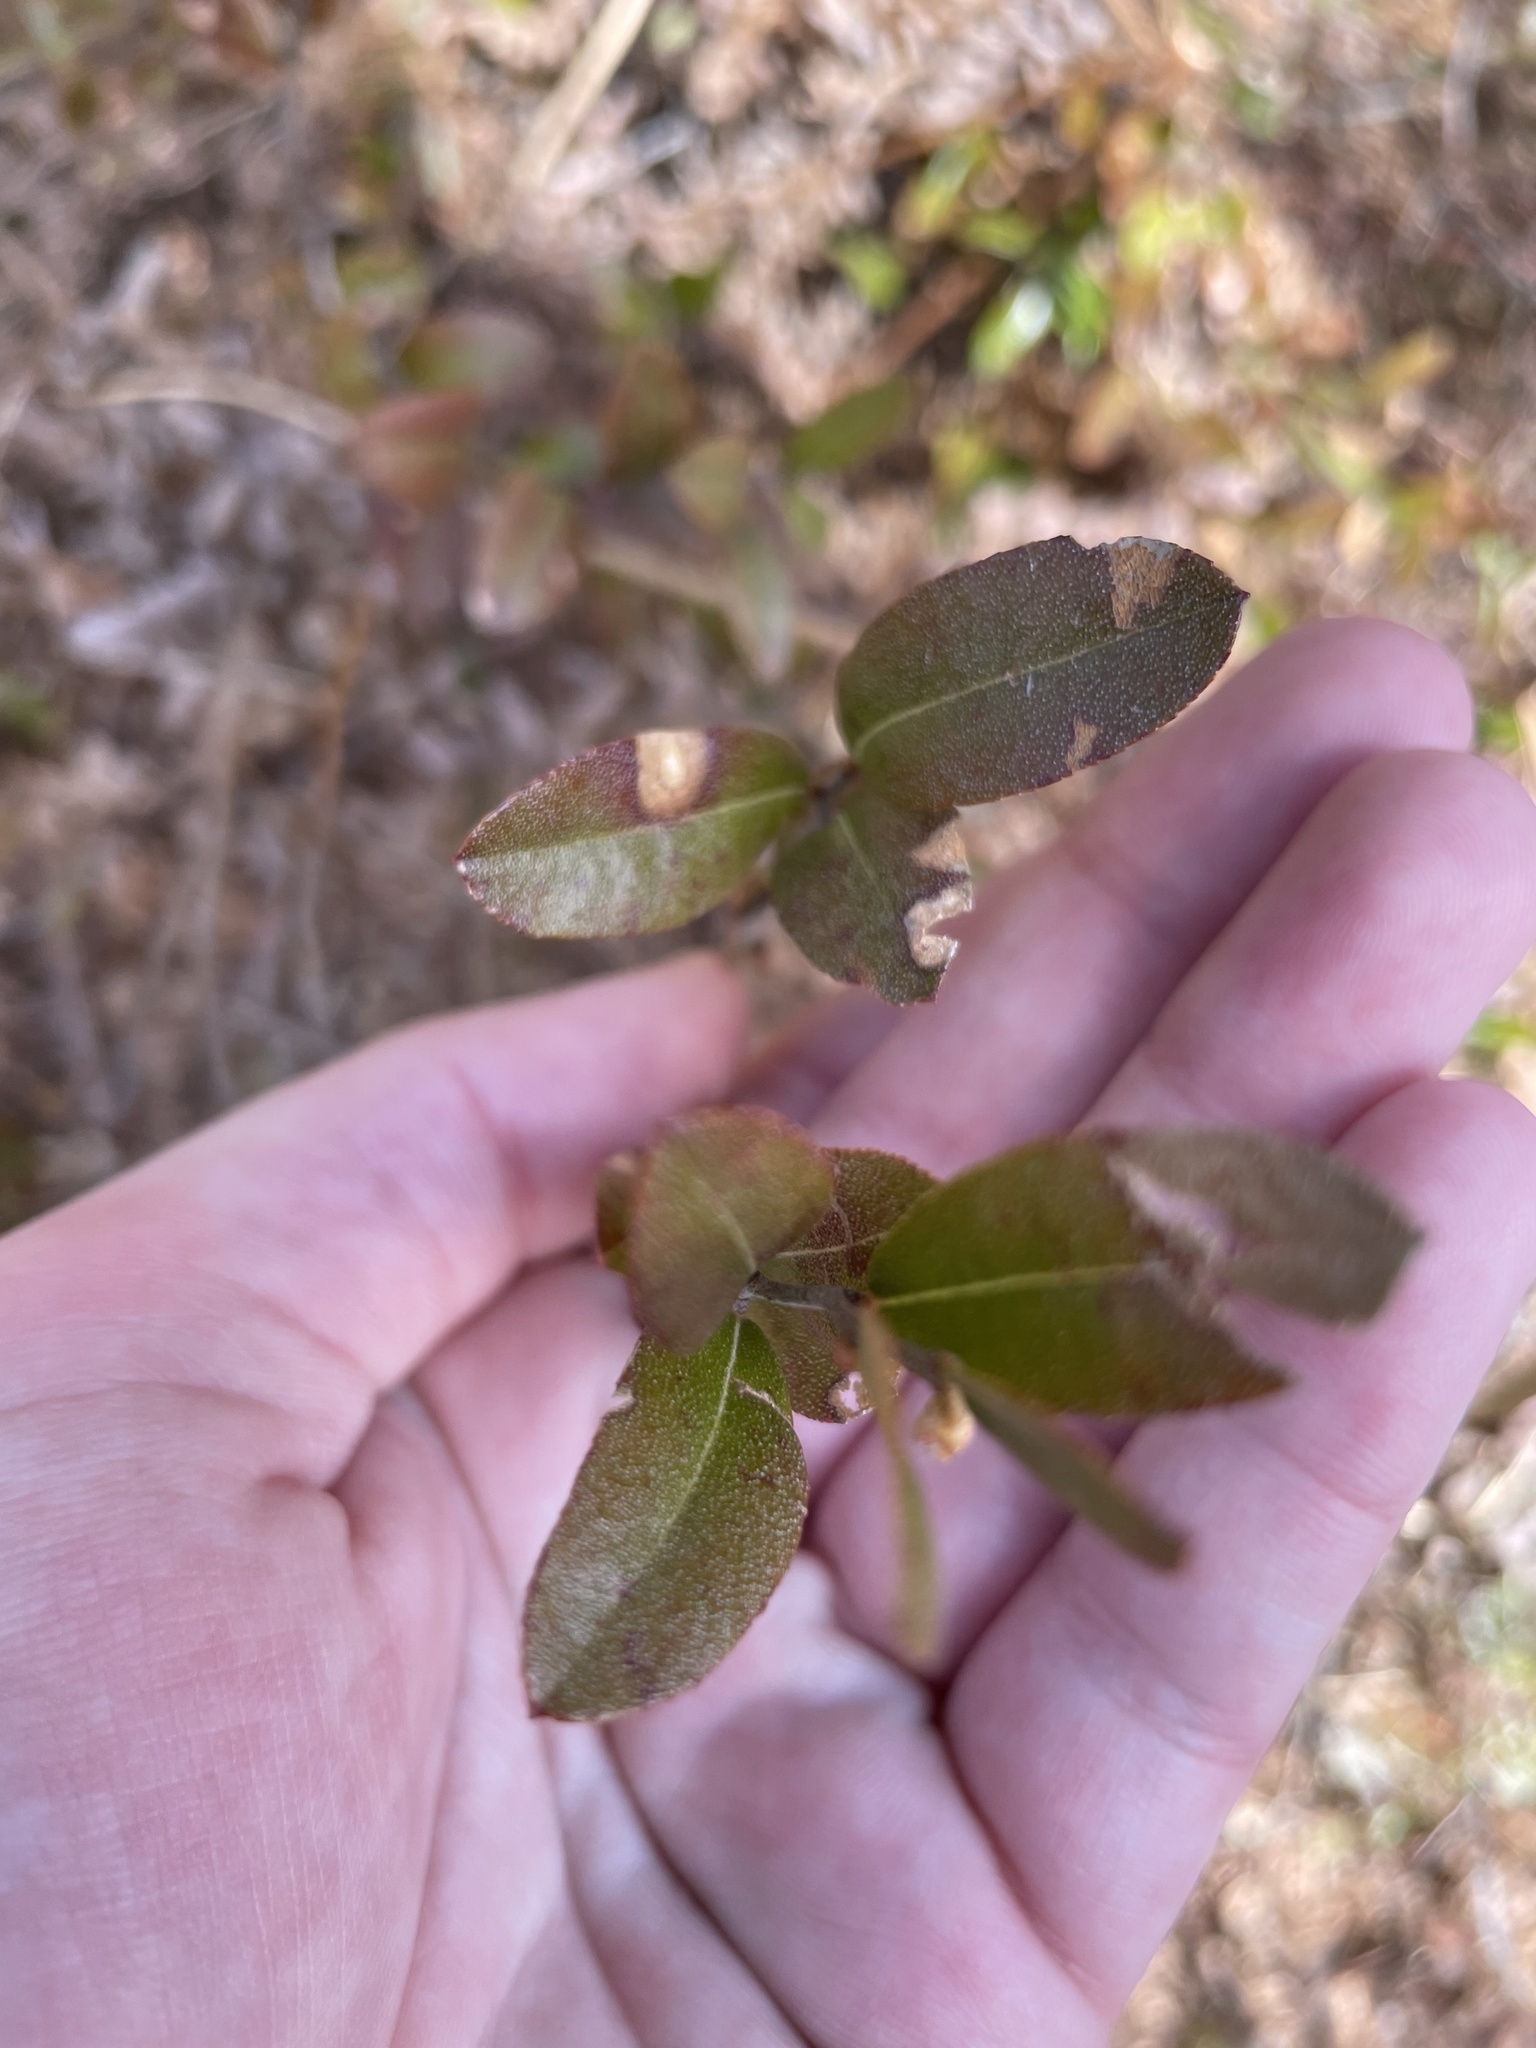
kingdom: Plantae
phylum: Tracheophyta
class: Magnoliopsida
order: Ericales
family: Ericaceae
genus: Chamaedaphne
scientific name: Chamaedaphne calyculata
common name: Leatherleaf
